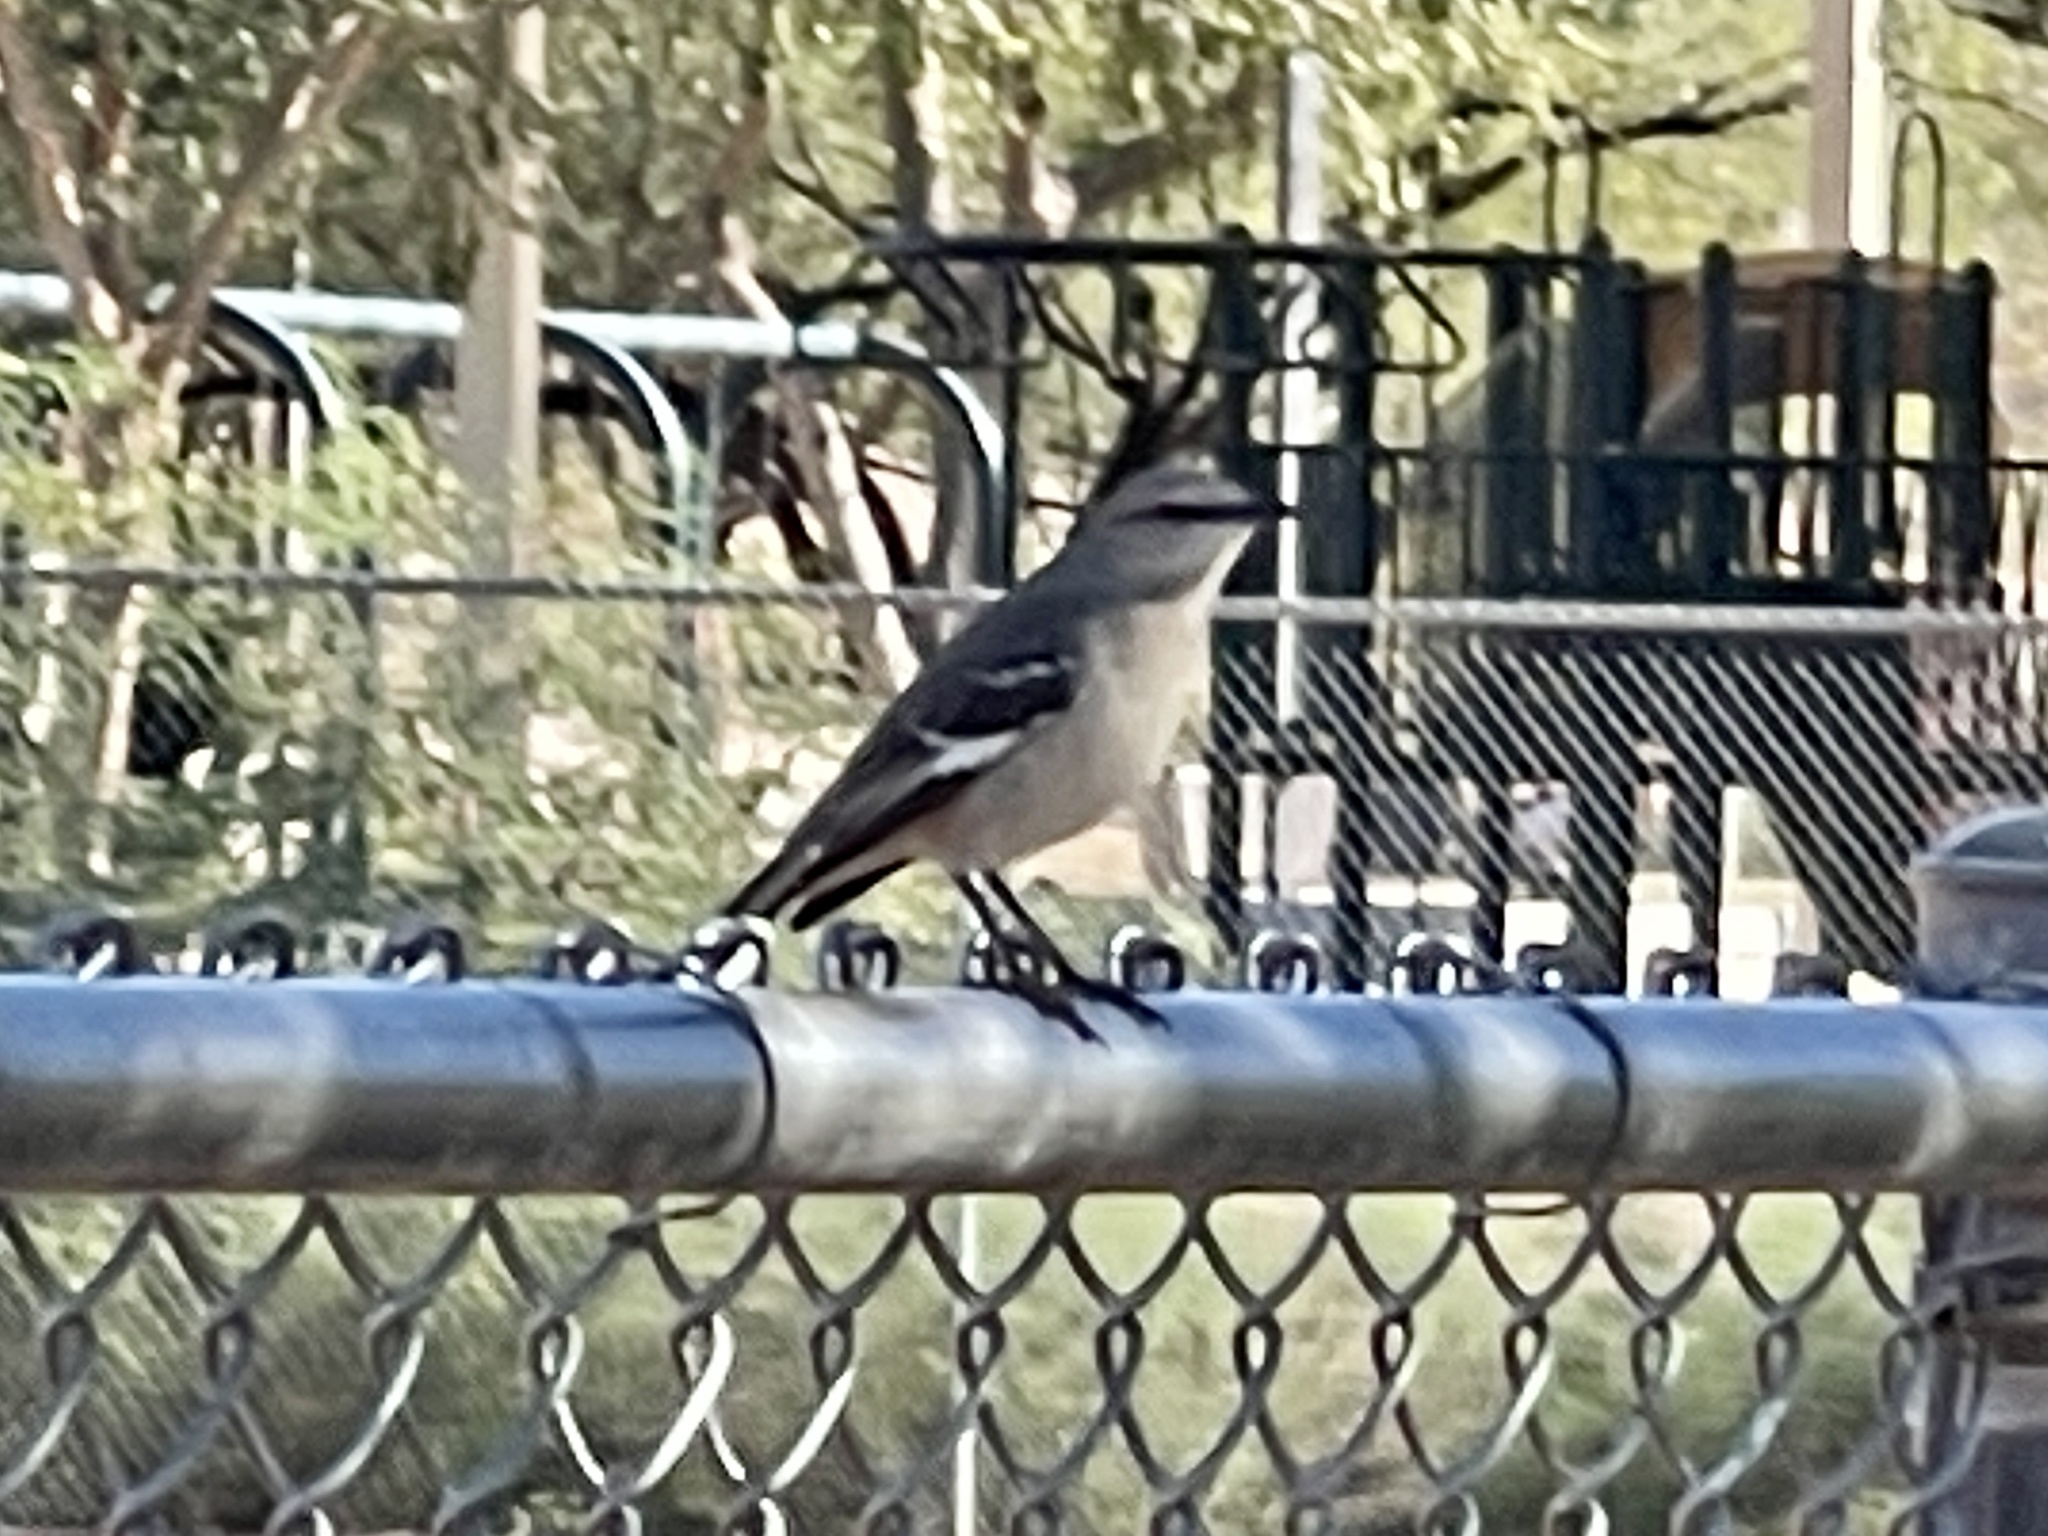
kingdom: Animalia
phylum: Chordata
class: Aves
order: Passeriformes
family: Mimidae
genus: Mimus
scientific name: Mimus polyglottos
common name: Northern mockingbird
